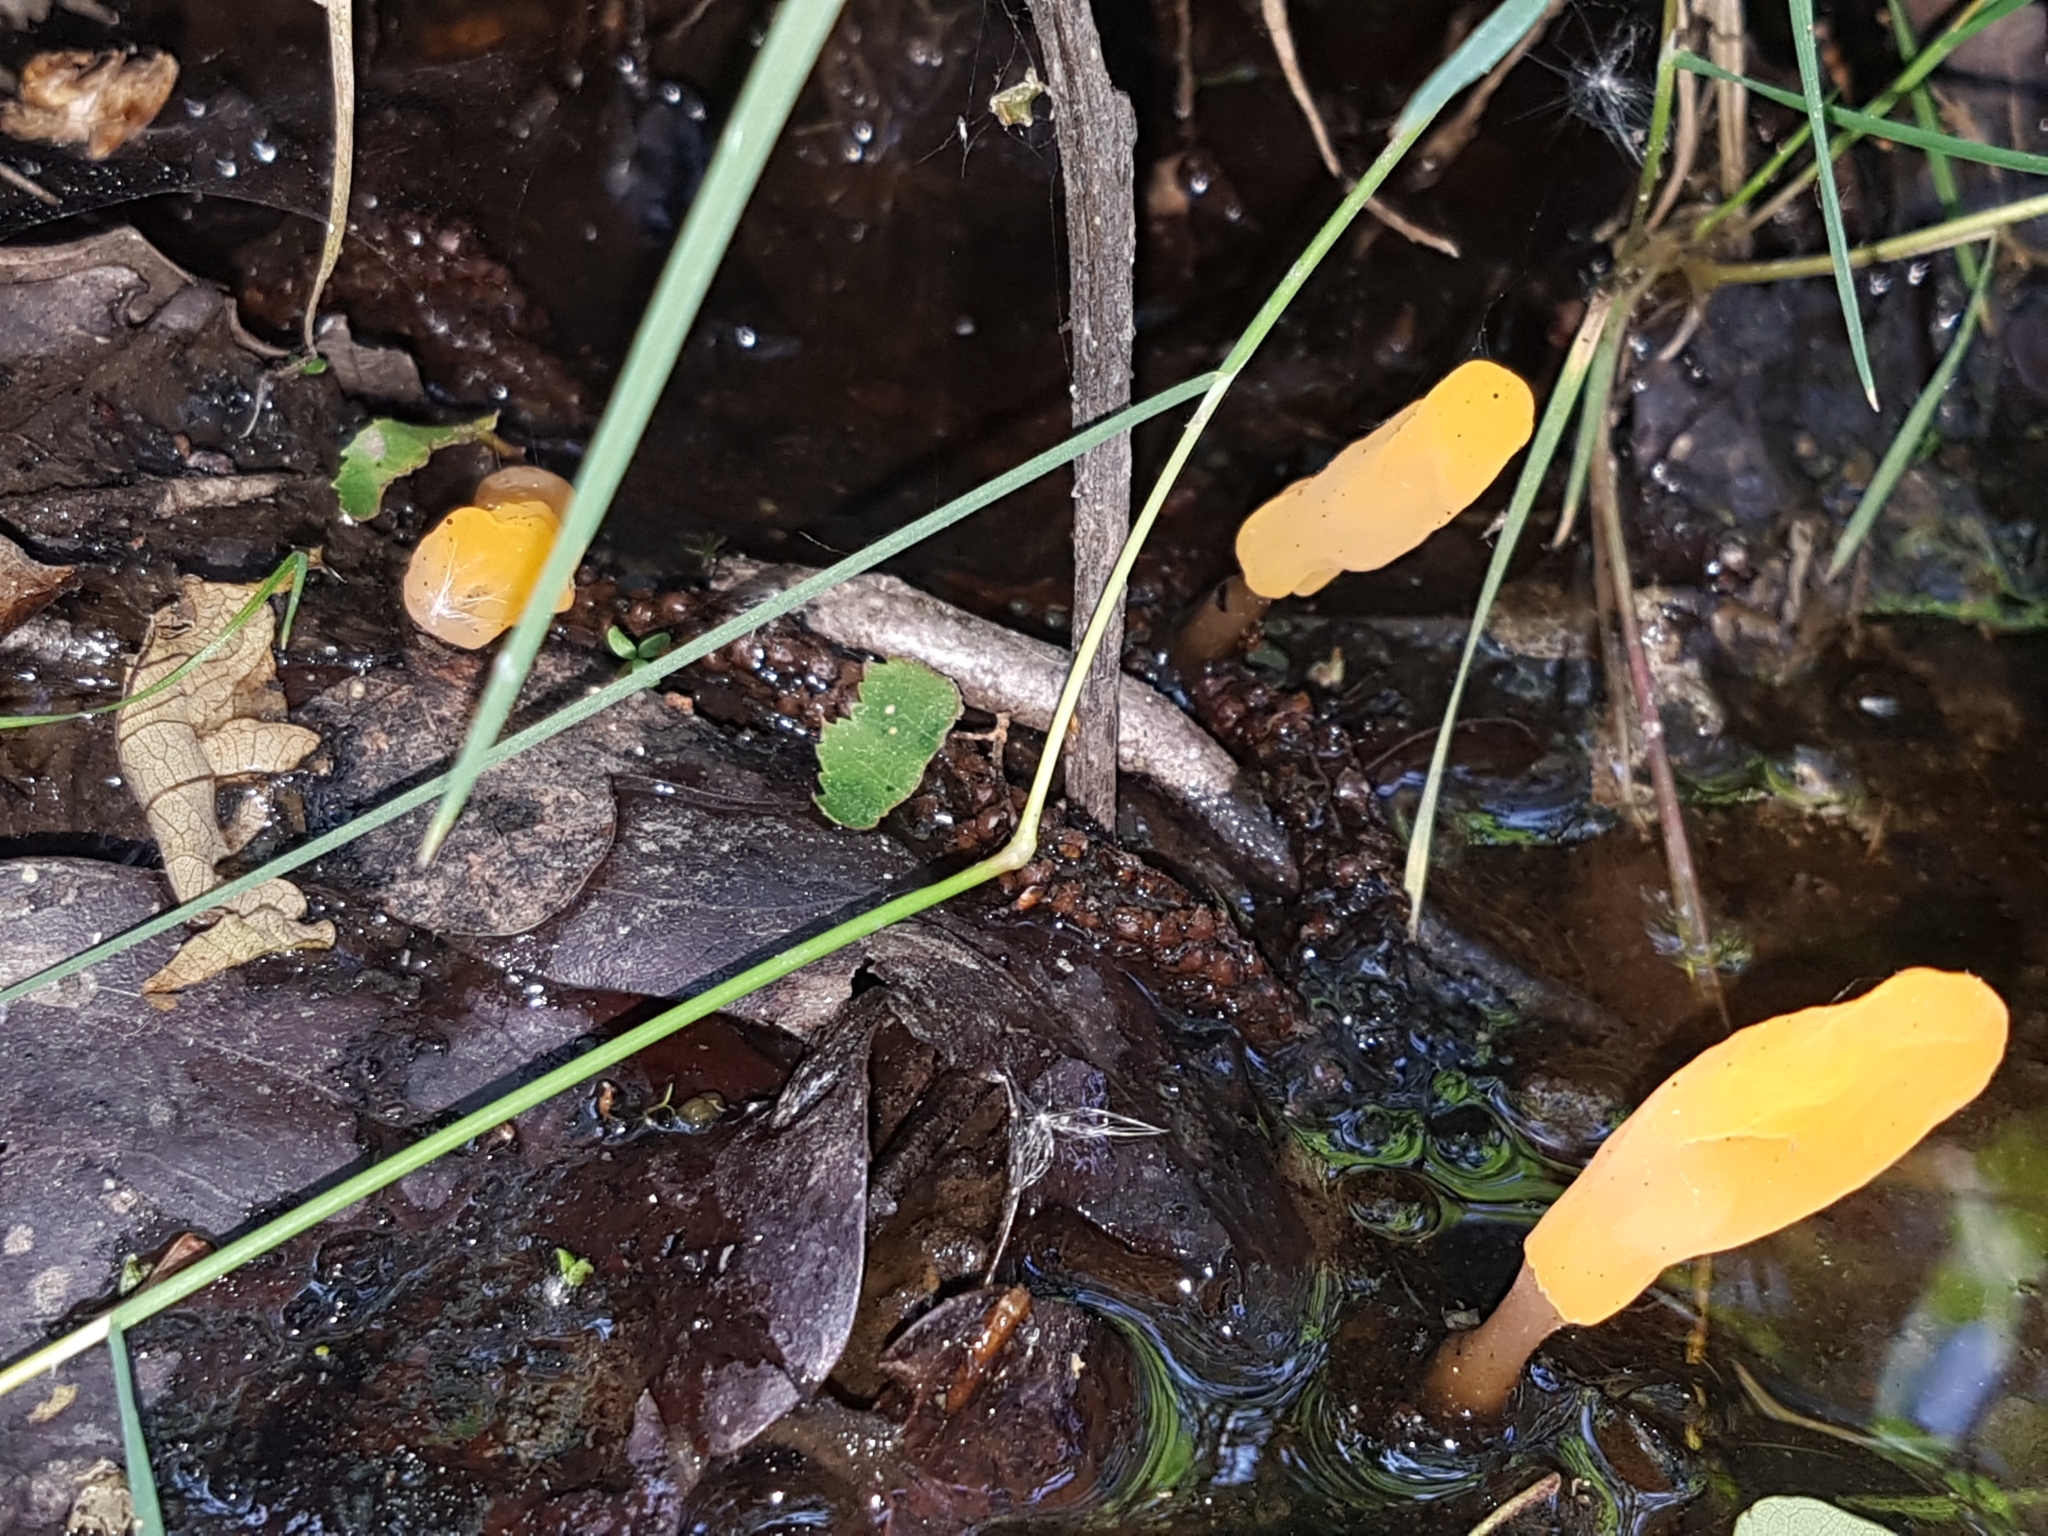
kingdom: Fungi
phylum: Ascomycota
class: Leotiomycetes
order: Helotiales
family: Cenangiaceae
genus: Mitrula
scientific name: Mitrula paludosa
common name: Bog beacon
